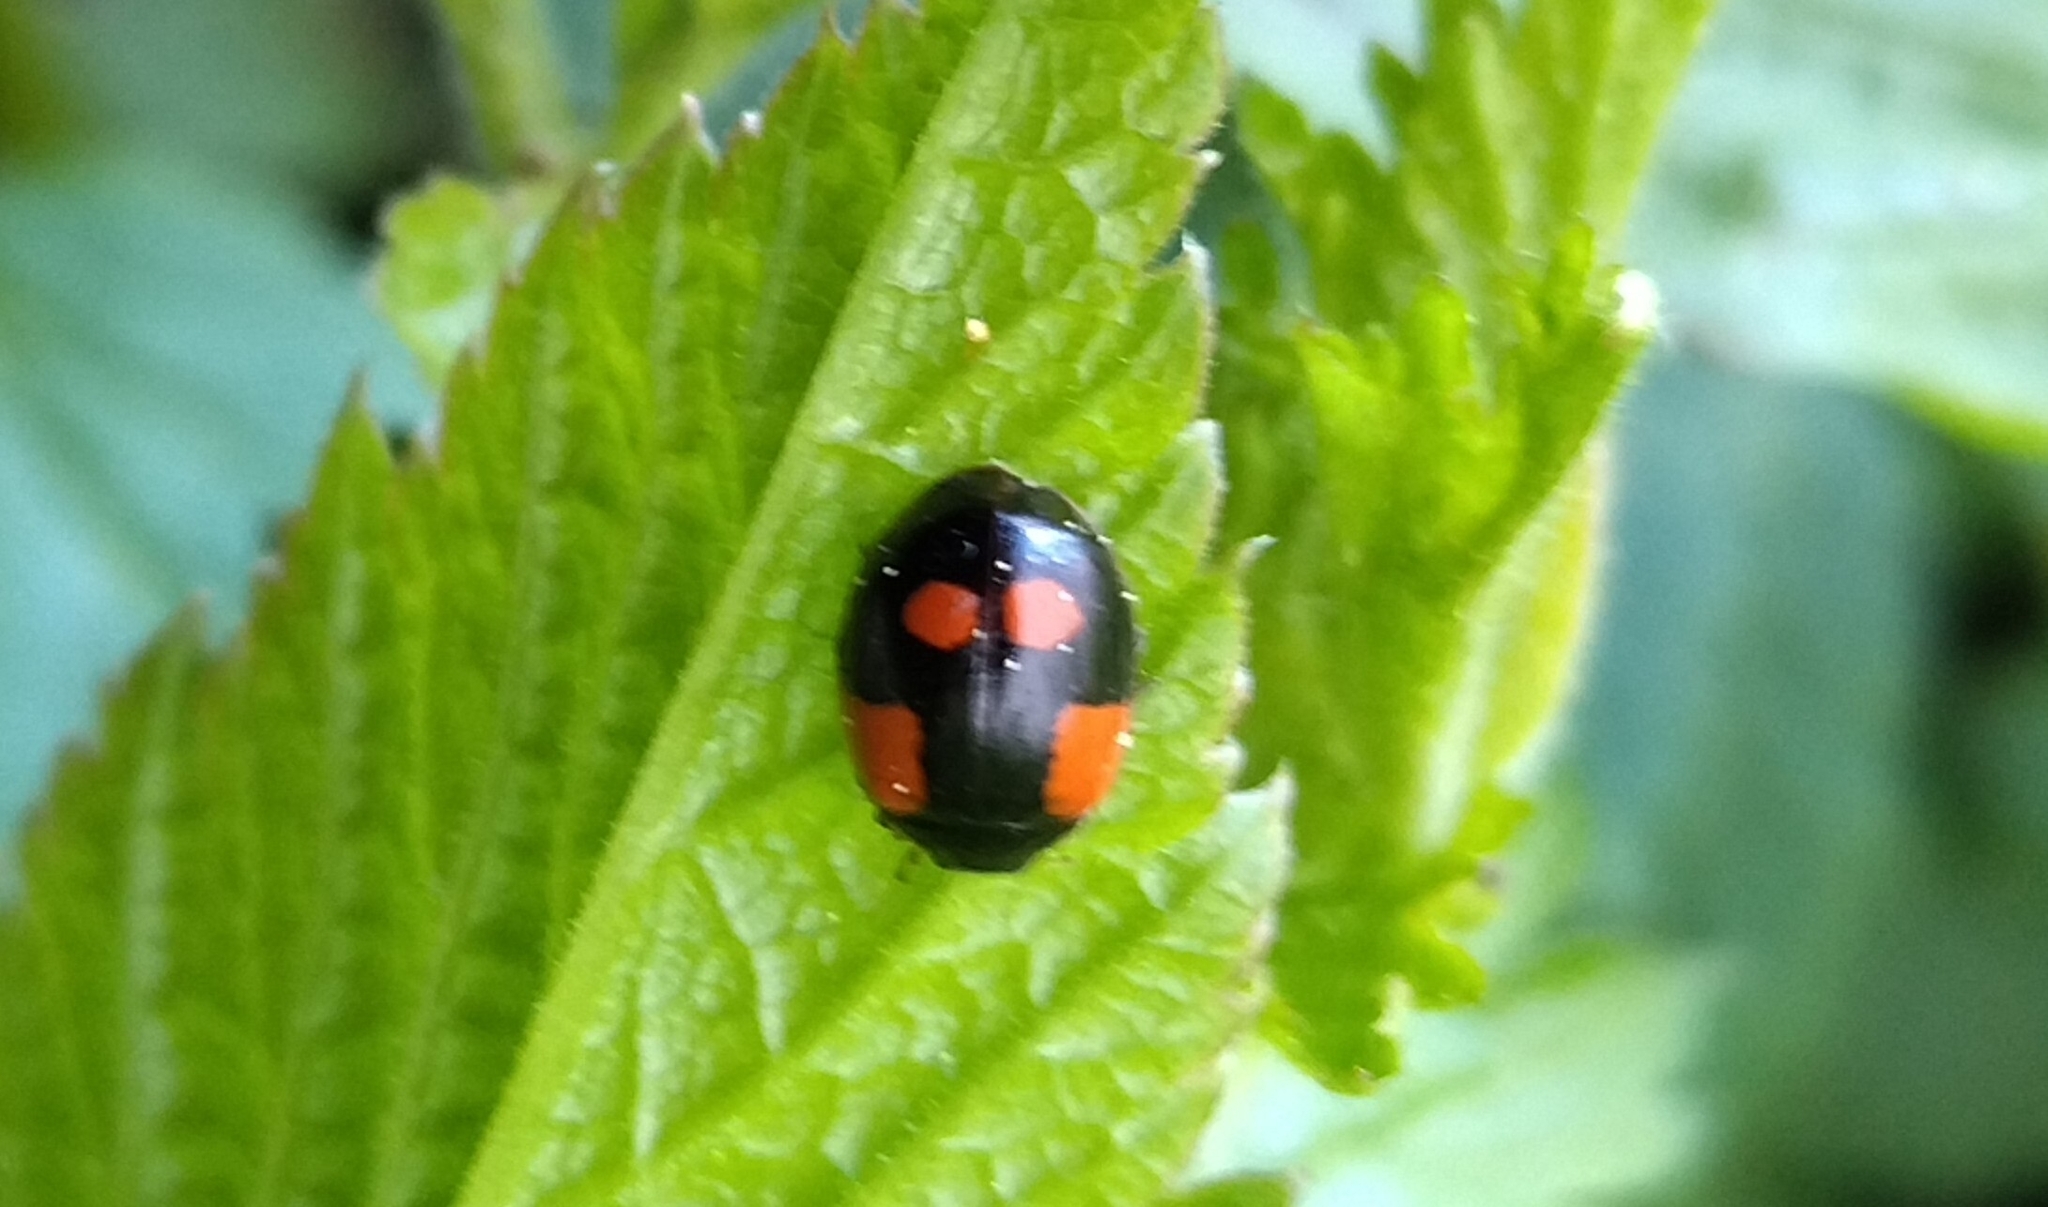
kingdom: Animalia
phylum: Arthropoda
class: Insecta
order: Coleoptera
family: Coccinellidae
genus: Adalia
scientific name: Adalia bipunctata
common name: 2-spot ladybird
